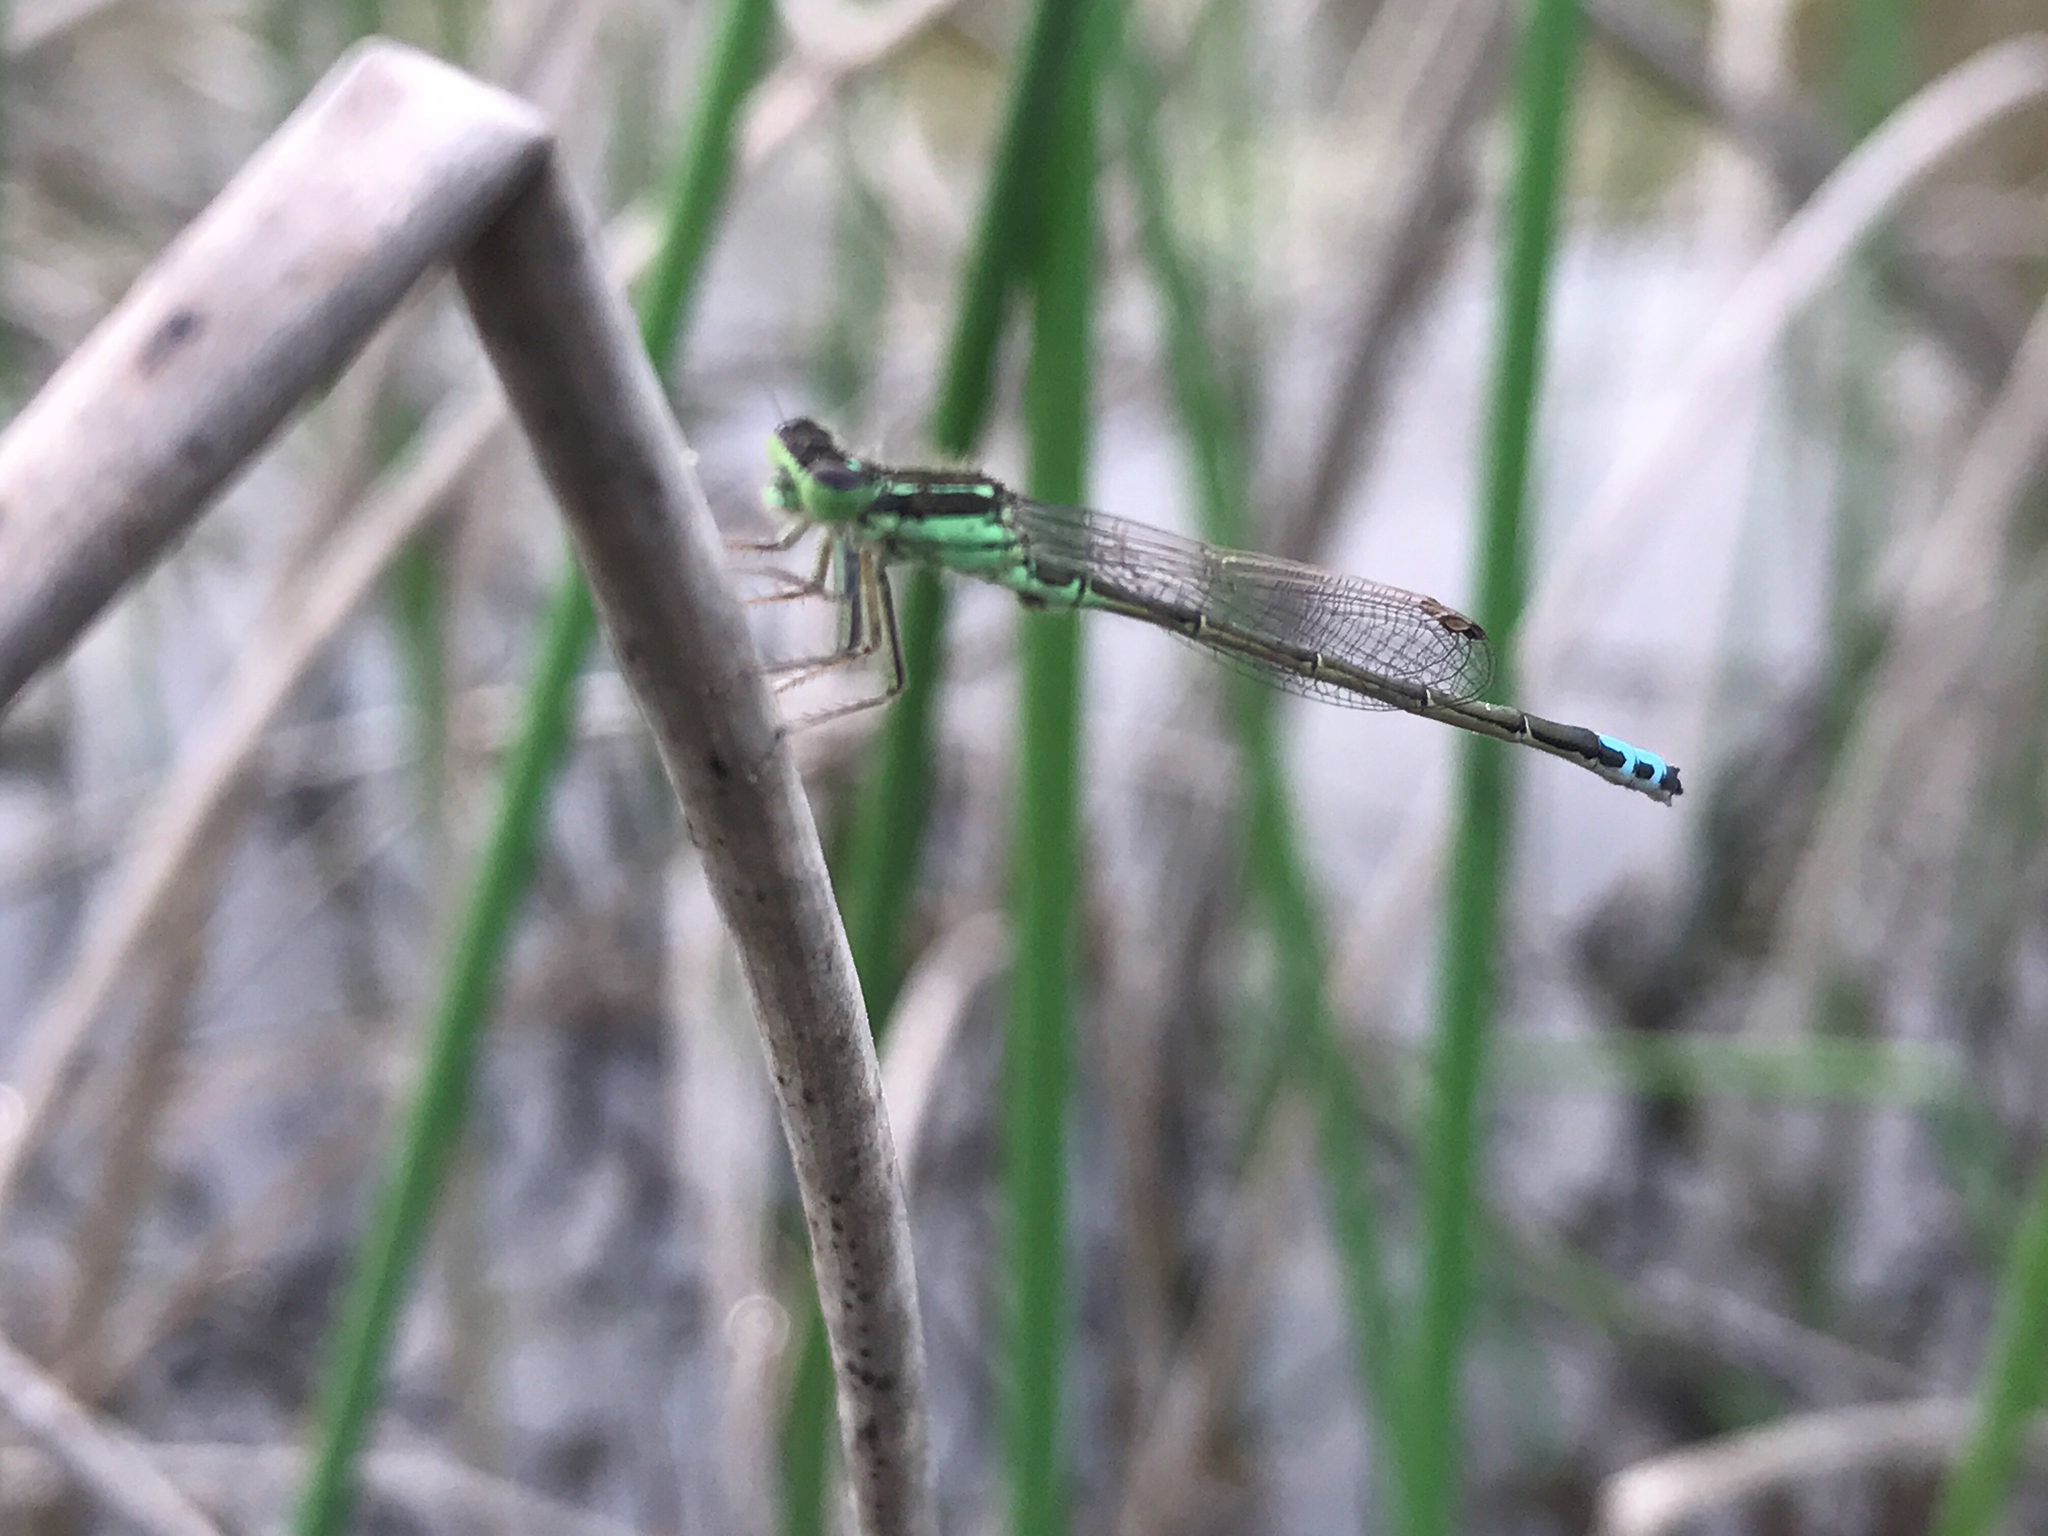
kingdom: Animalia
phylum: Arthropoda
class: Insecta
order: Odonata
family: Coenagrionidae
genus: Ischnura
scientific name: Ischnura verticalis
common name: Eastern forktail
